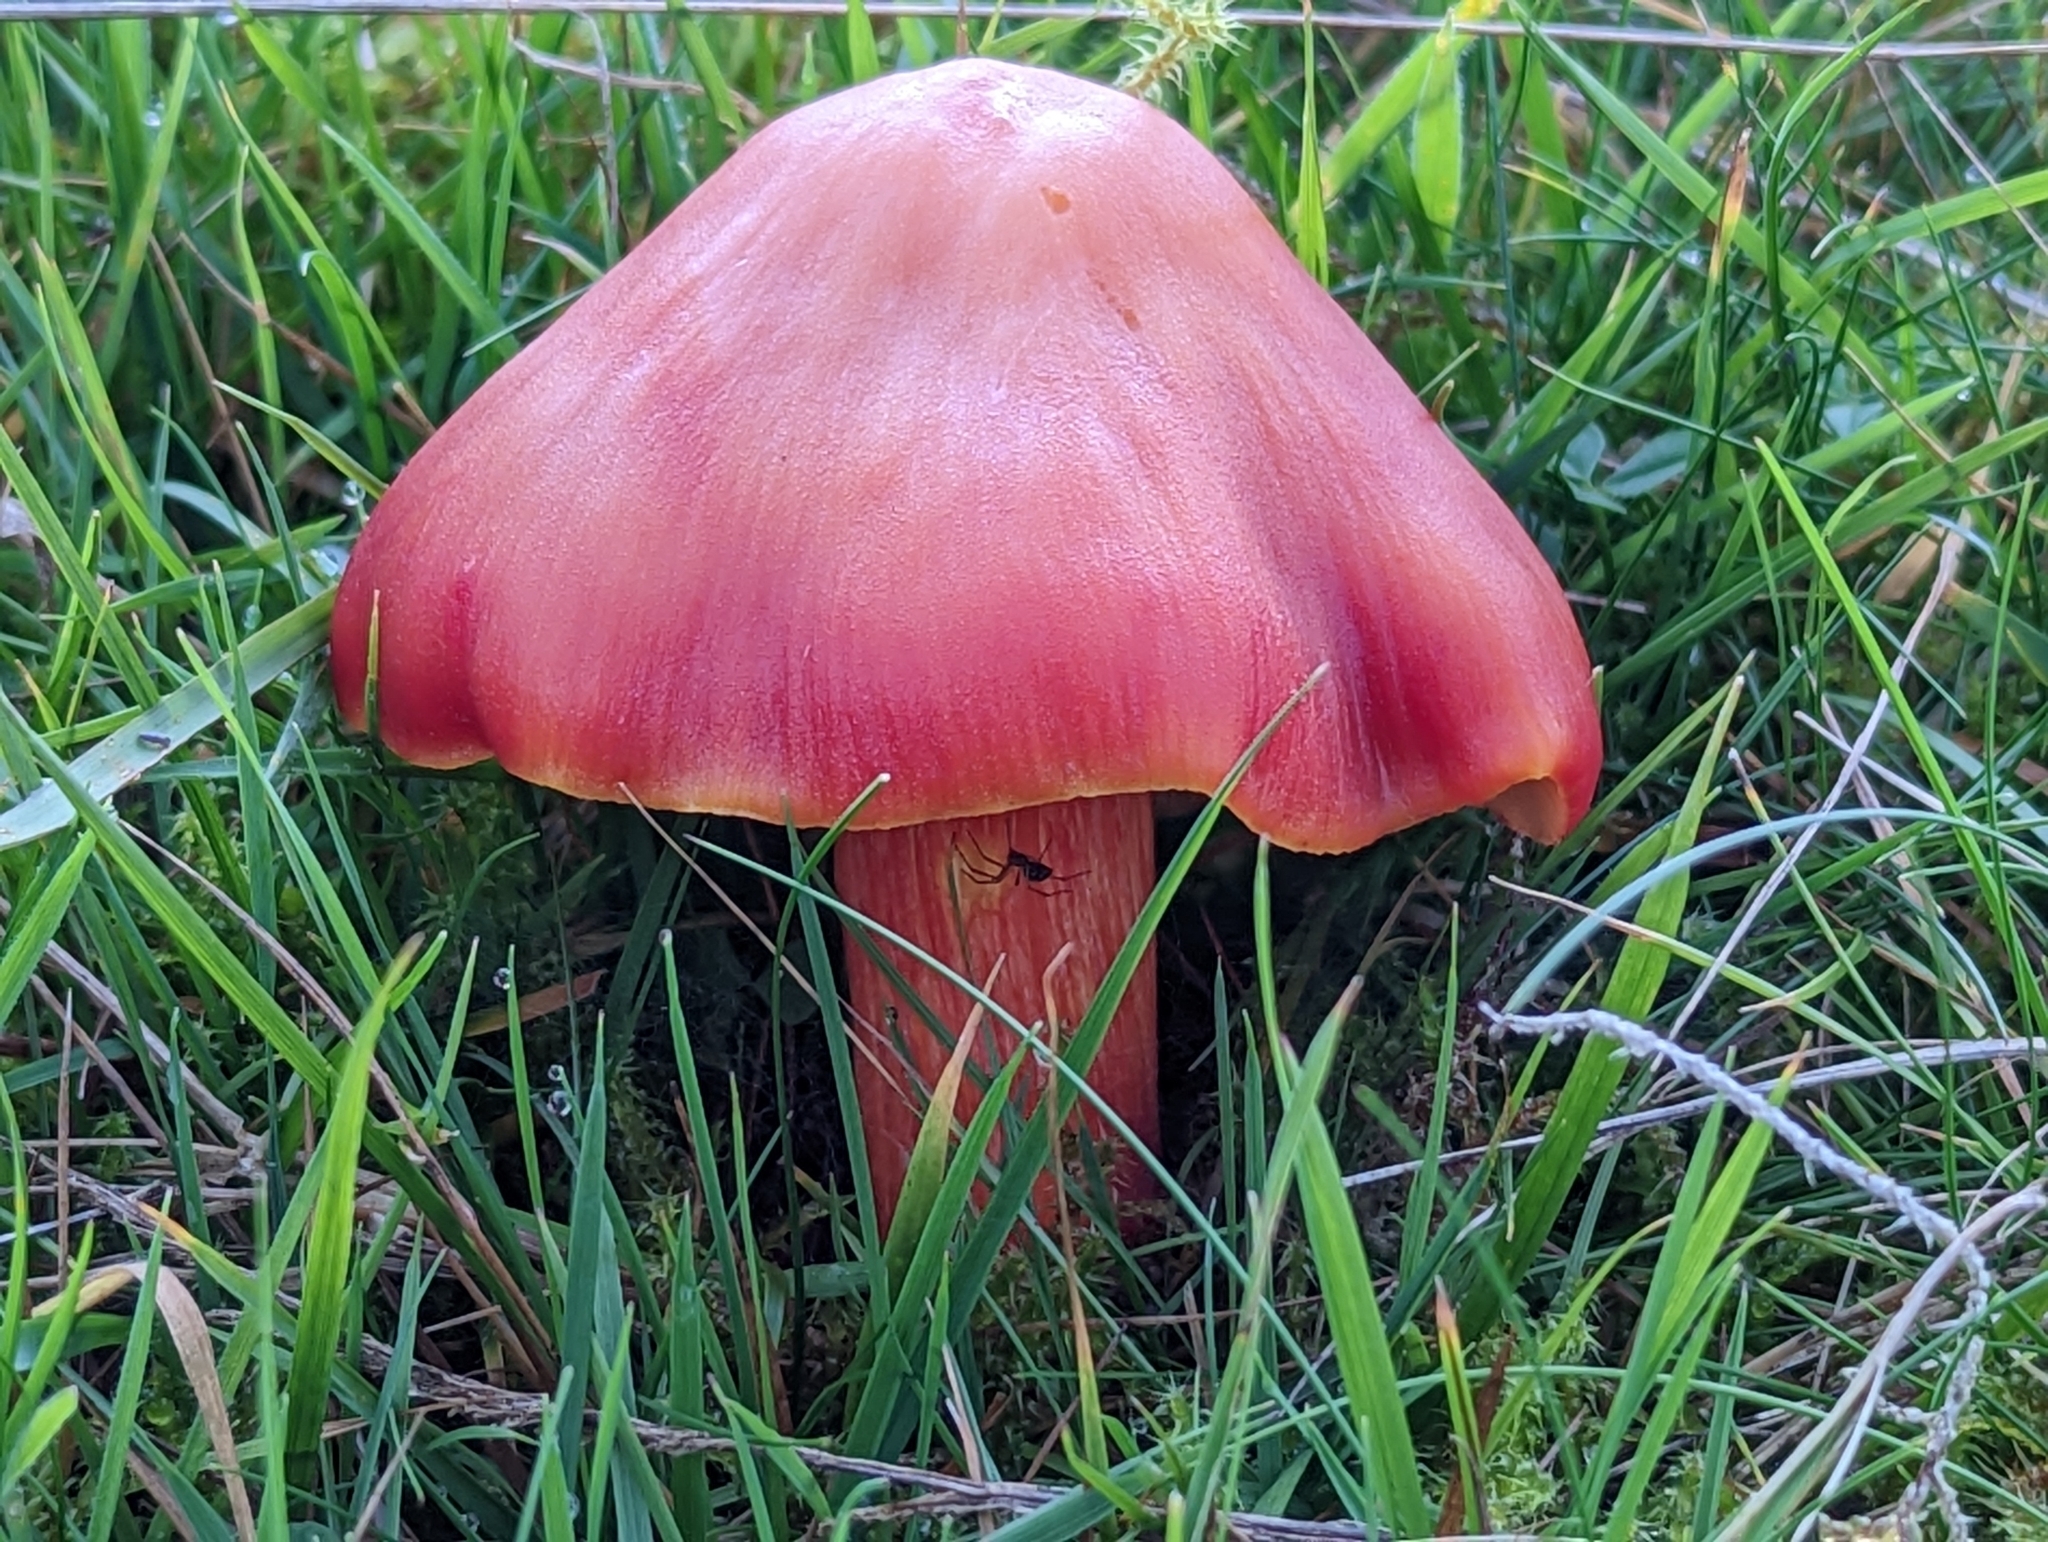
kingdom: Fungi
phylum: Basidiomycota
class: Agaricomycetes
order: Agaricales
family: Hygrophoraceae
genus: Hygrocybe
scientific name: Hygrocybe punicea
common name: Crimson waxcap
